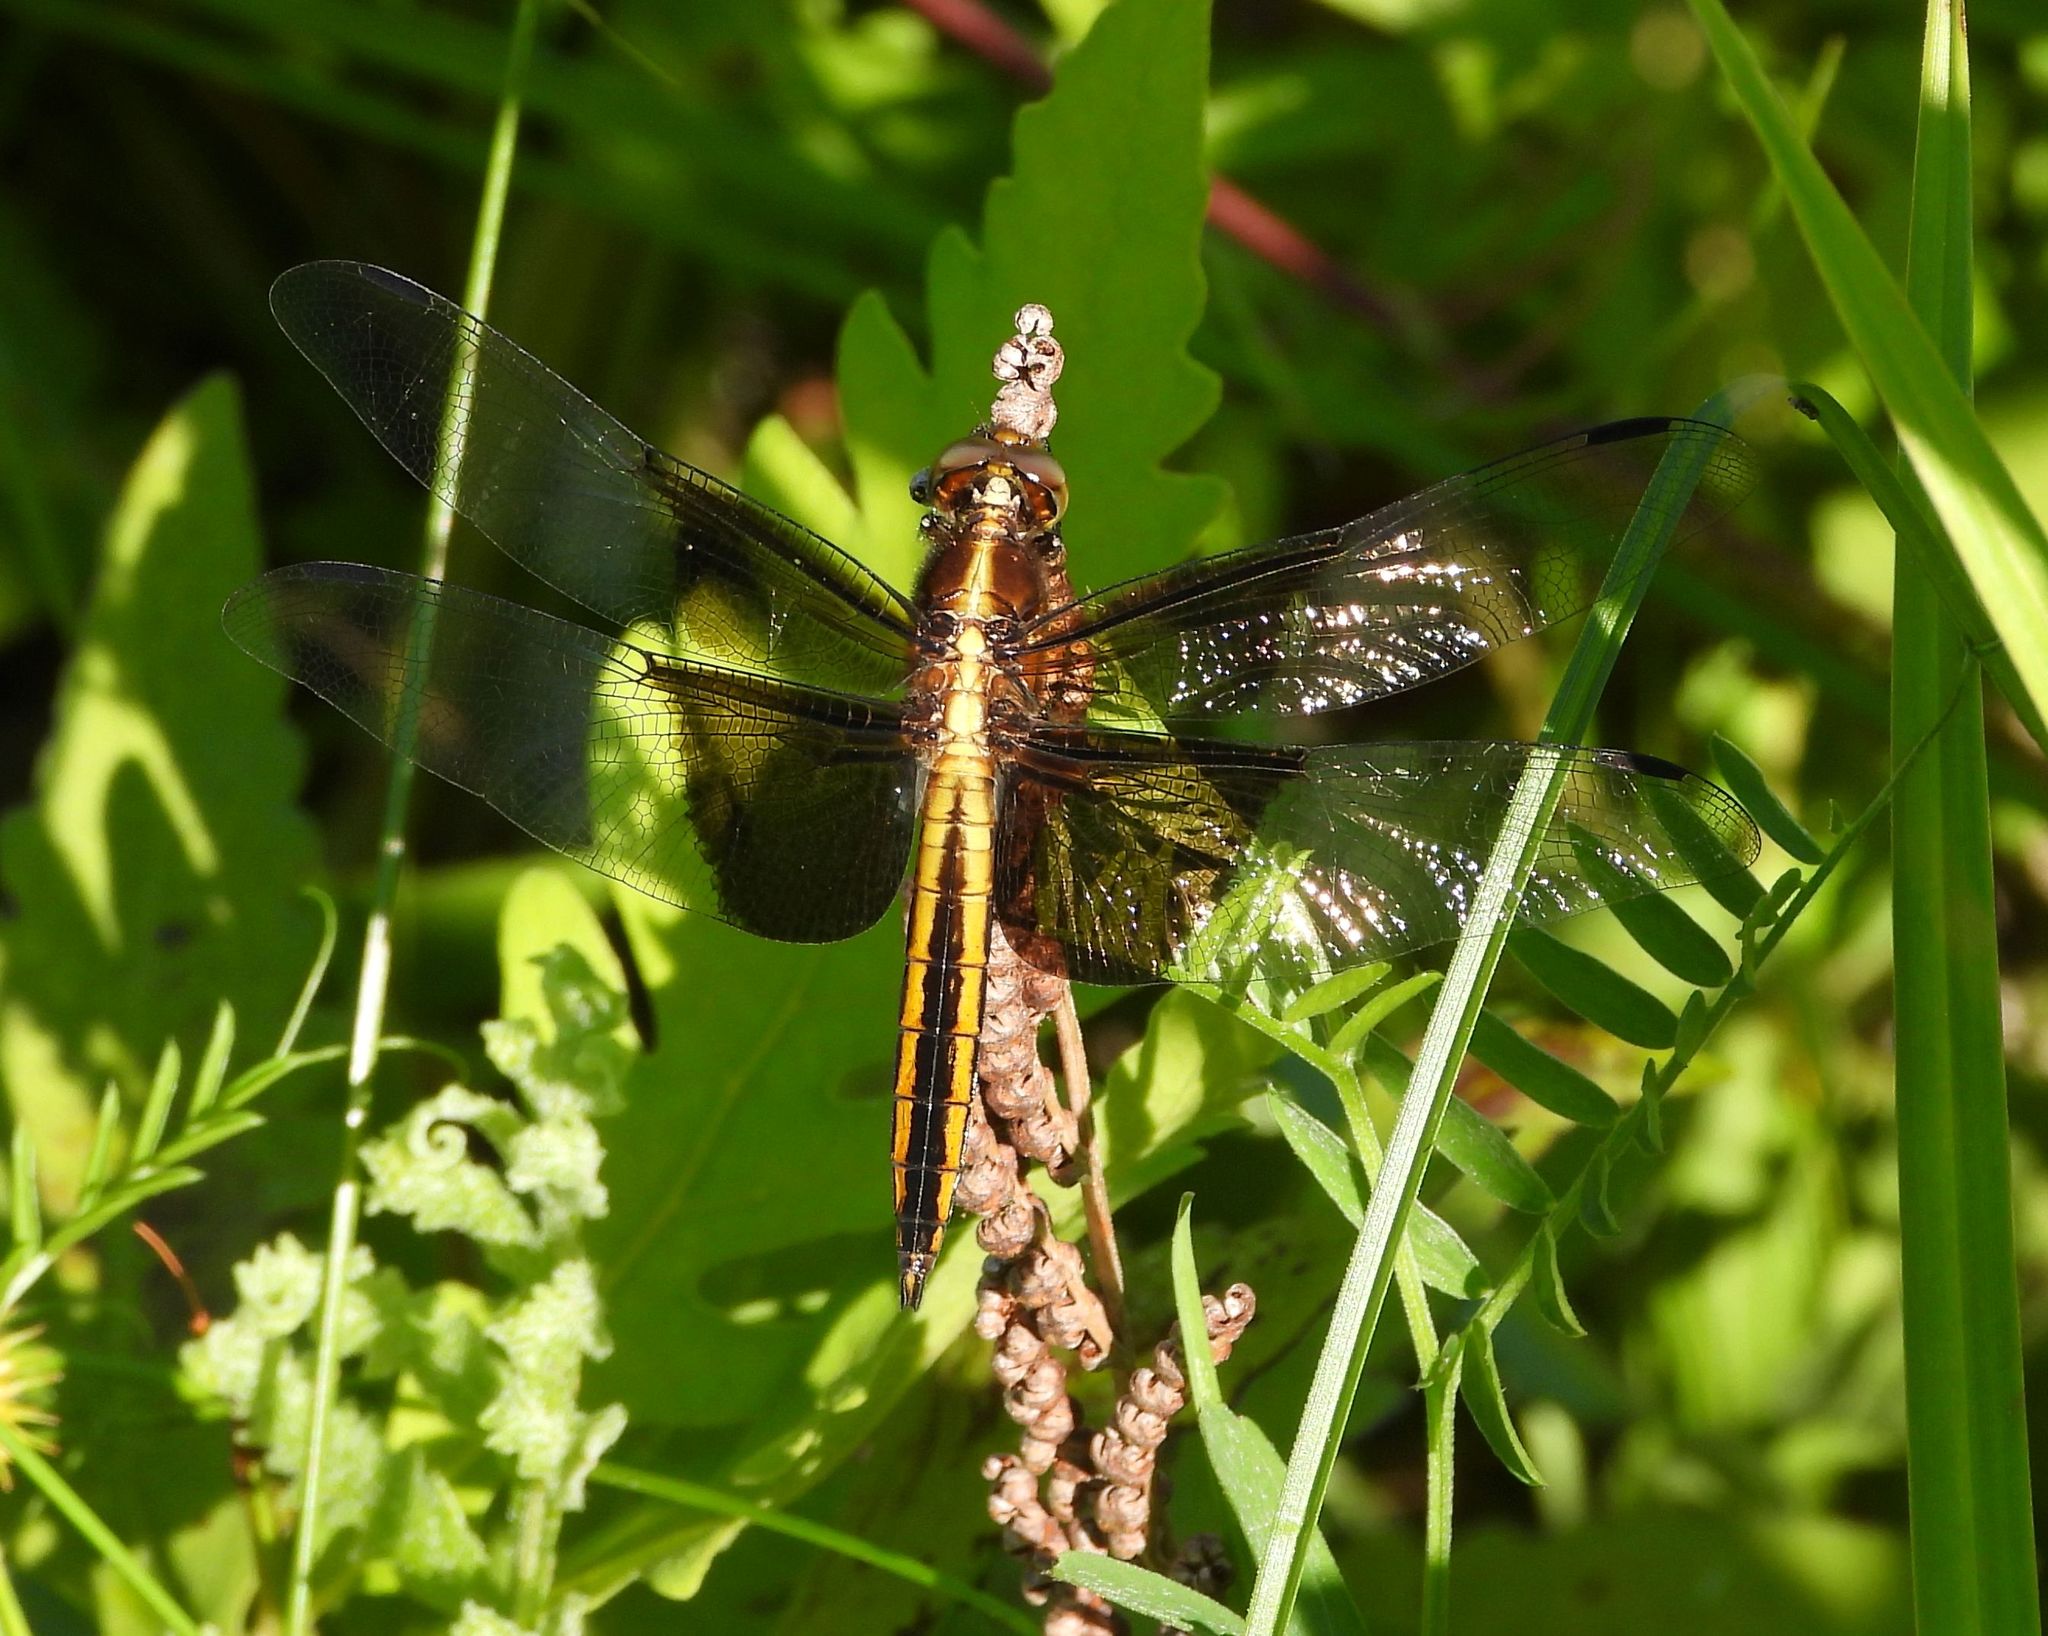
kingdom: Animalia
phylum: Arthropoda
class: Insecta
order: Odonata
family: Libellulidae
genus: Libellula
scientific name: Libellula luctuosa
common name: Widow skimmer
